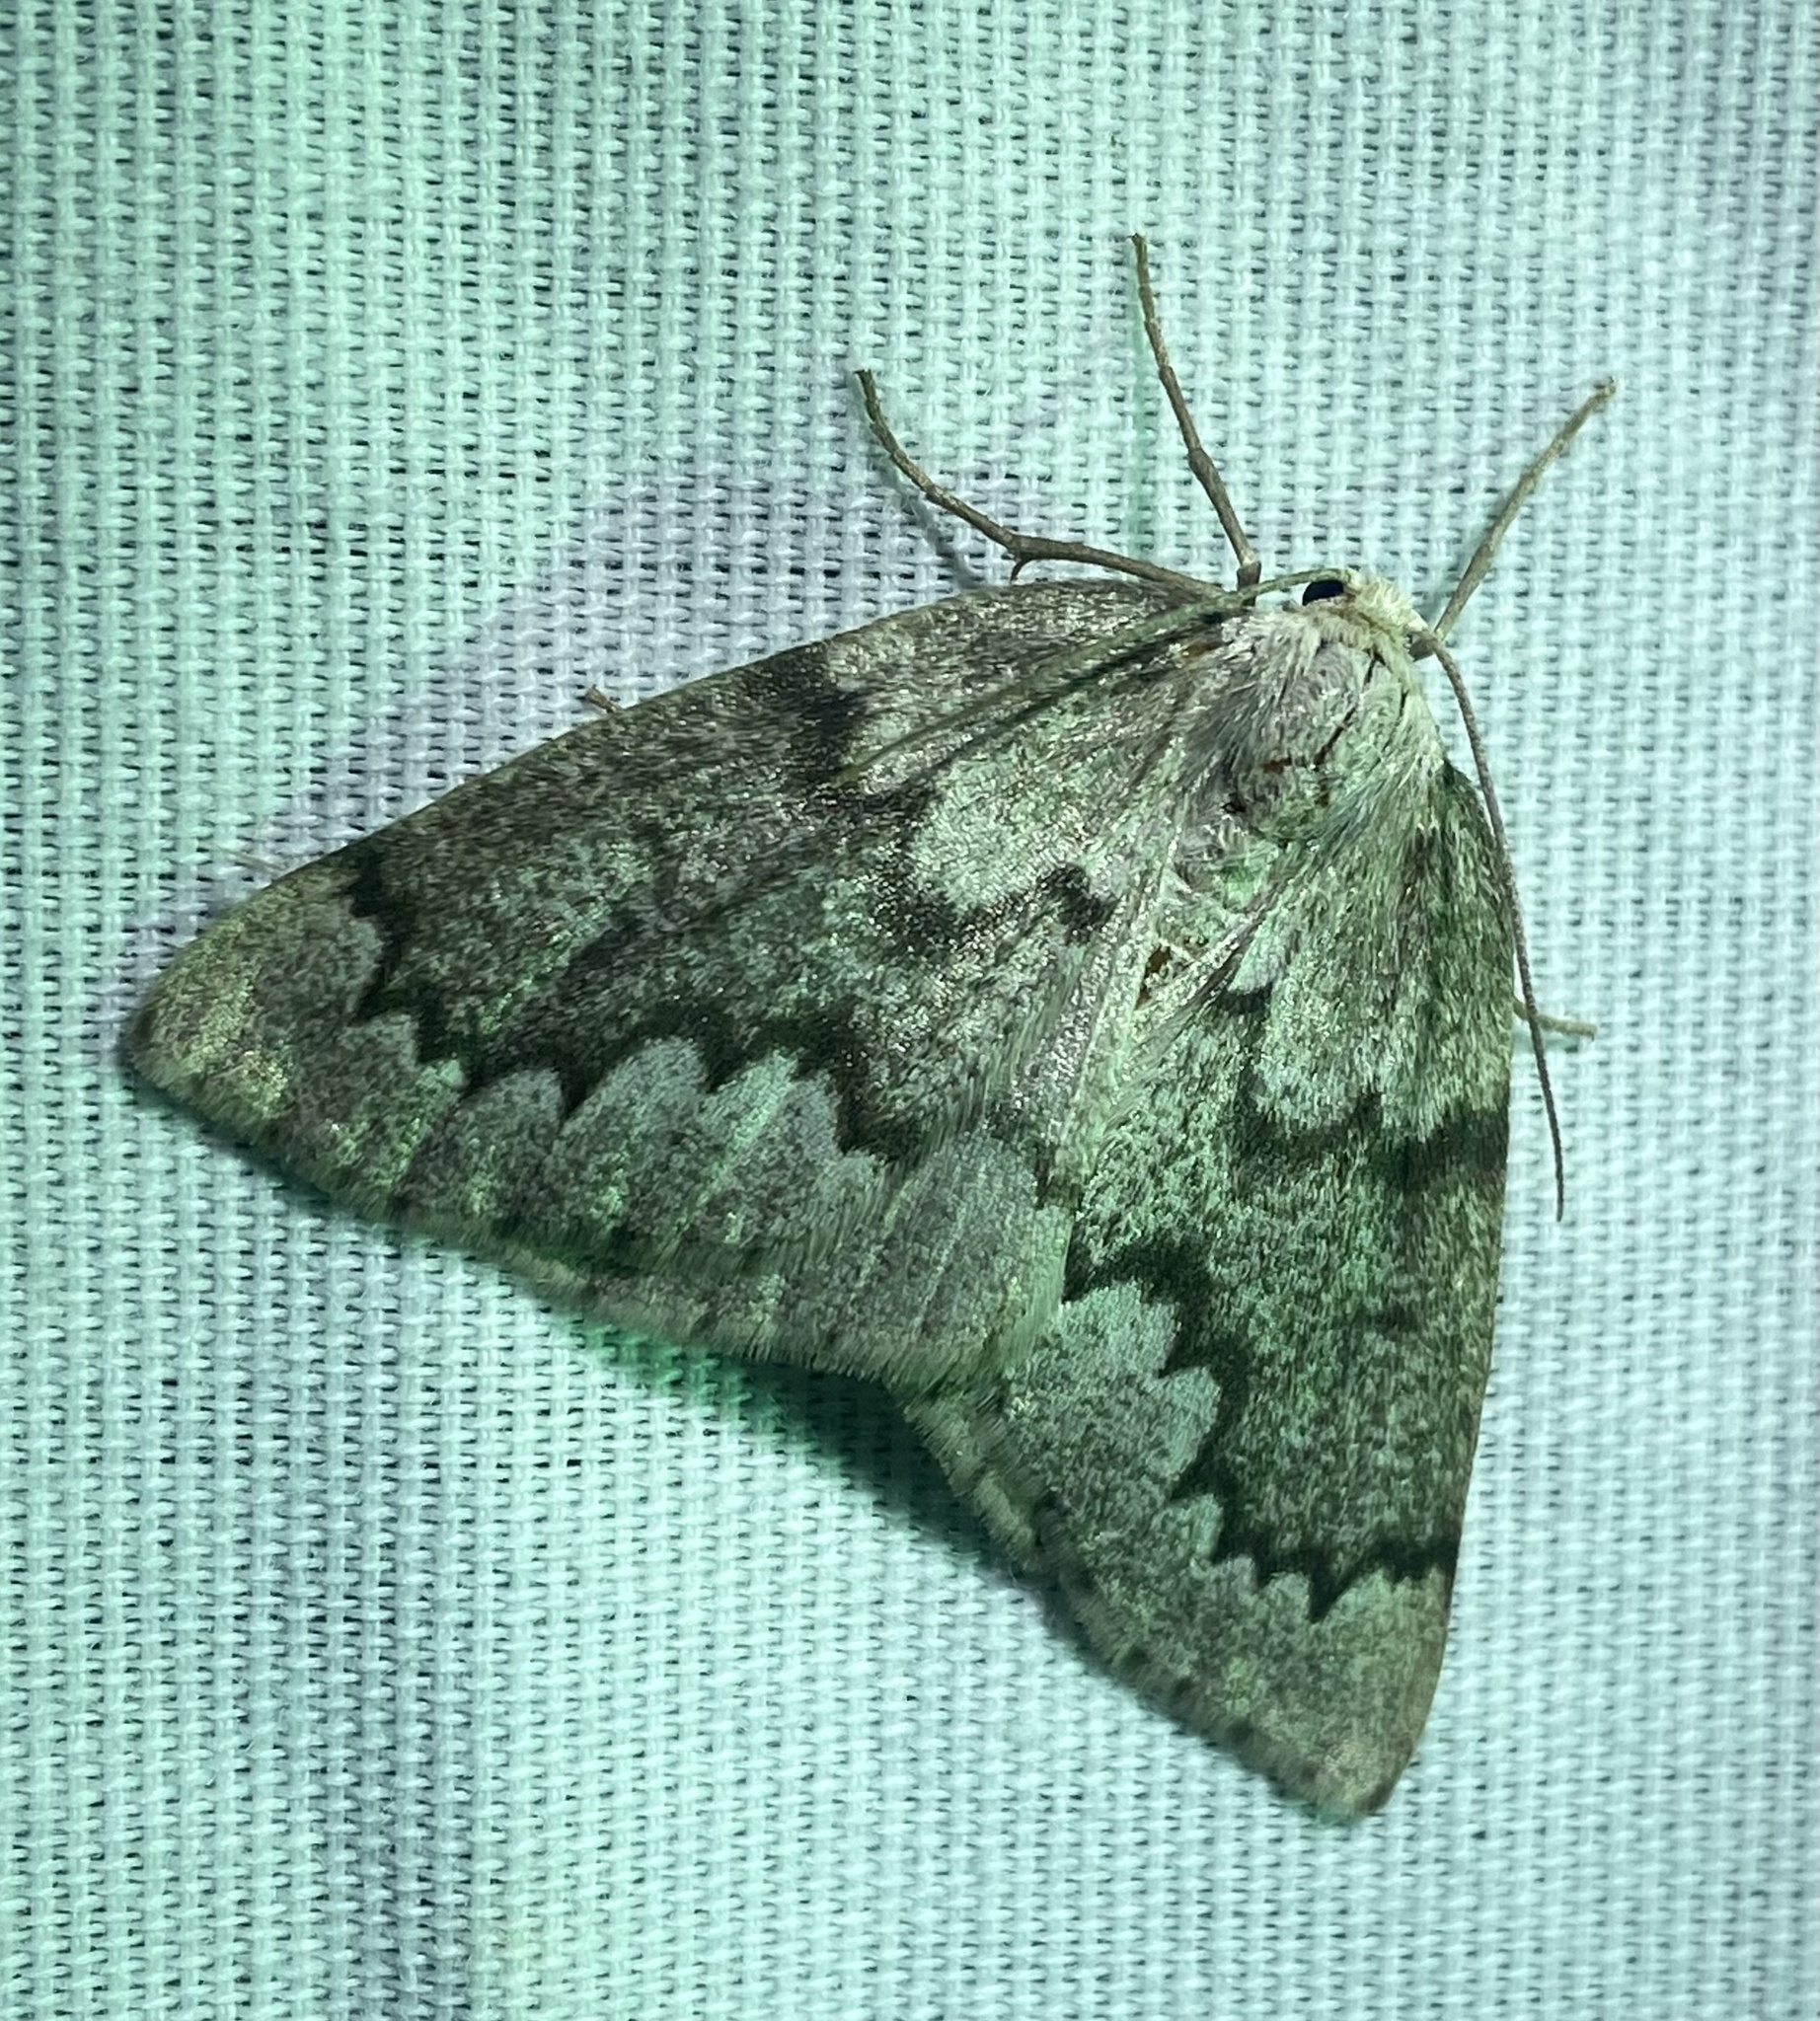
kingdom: Animalia
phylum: Arthropoda
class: Insecta
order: Lepidoptera
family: Geometridae
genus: Nepytia
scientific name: Nepytia semiclusaria
